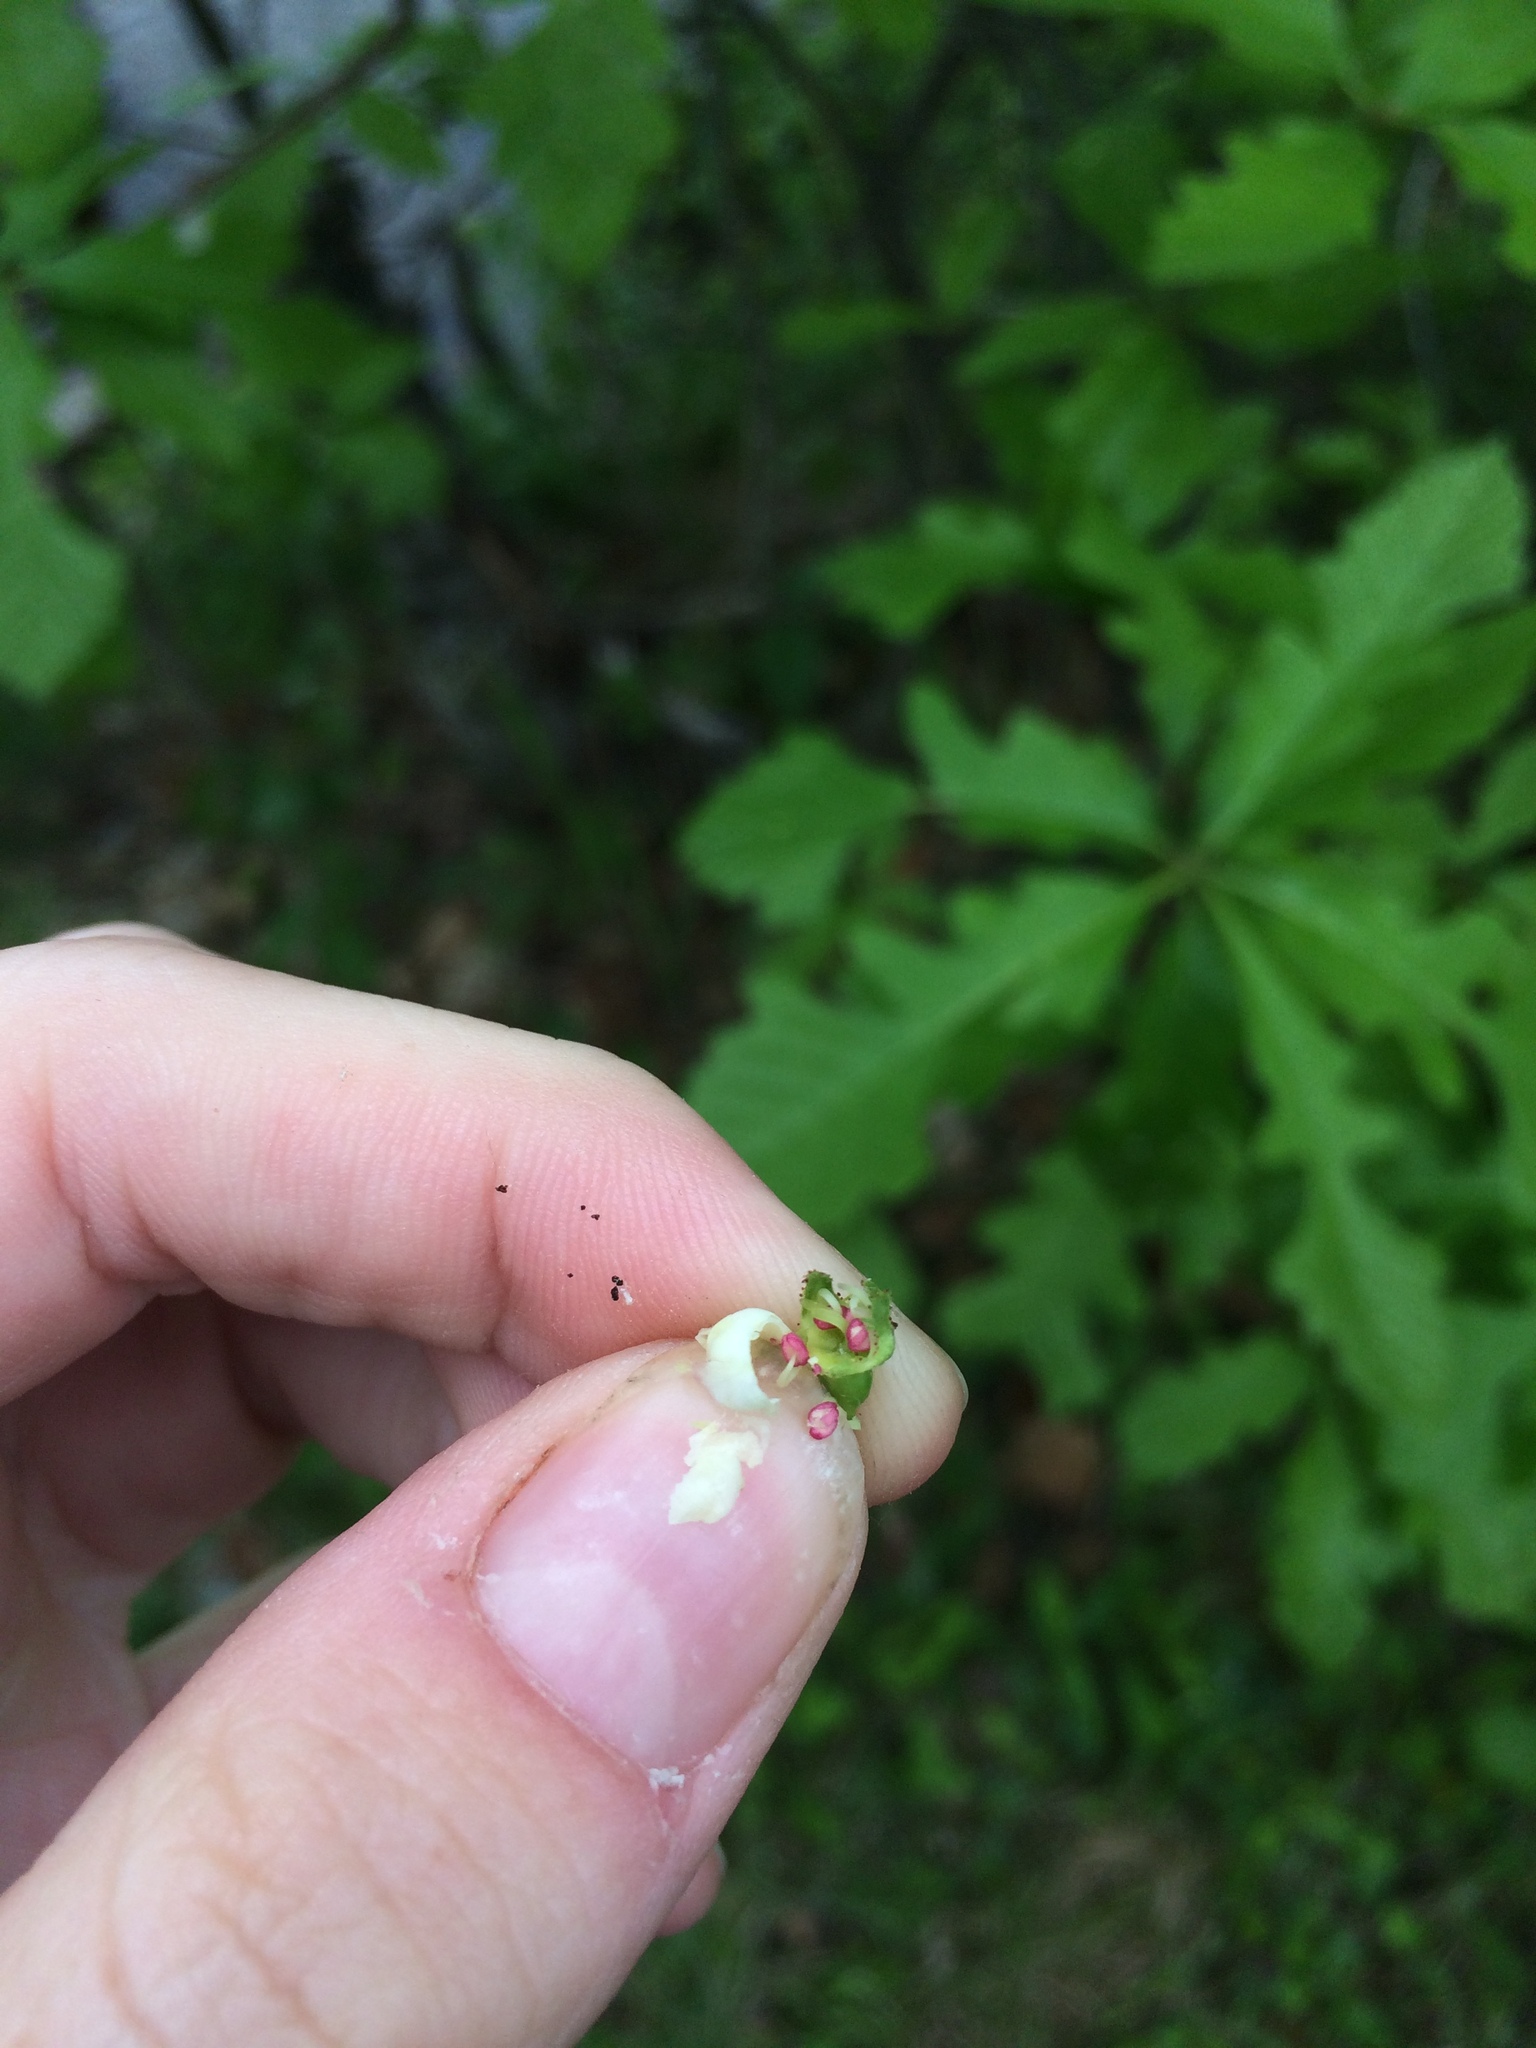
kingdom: Plantae
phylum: Tracheophyta
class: Magnoliopsida
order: Rosales
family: Rosaceae
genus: Crataegus
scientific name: Crataegus macracantha
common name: Large-thorn hawthorn
